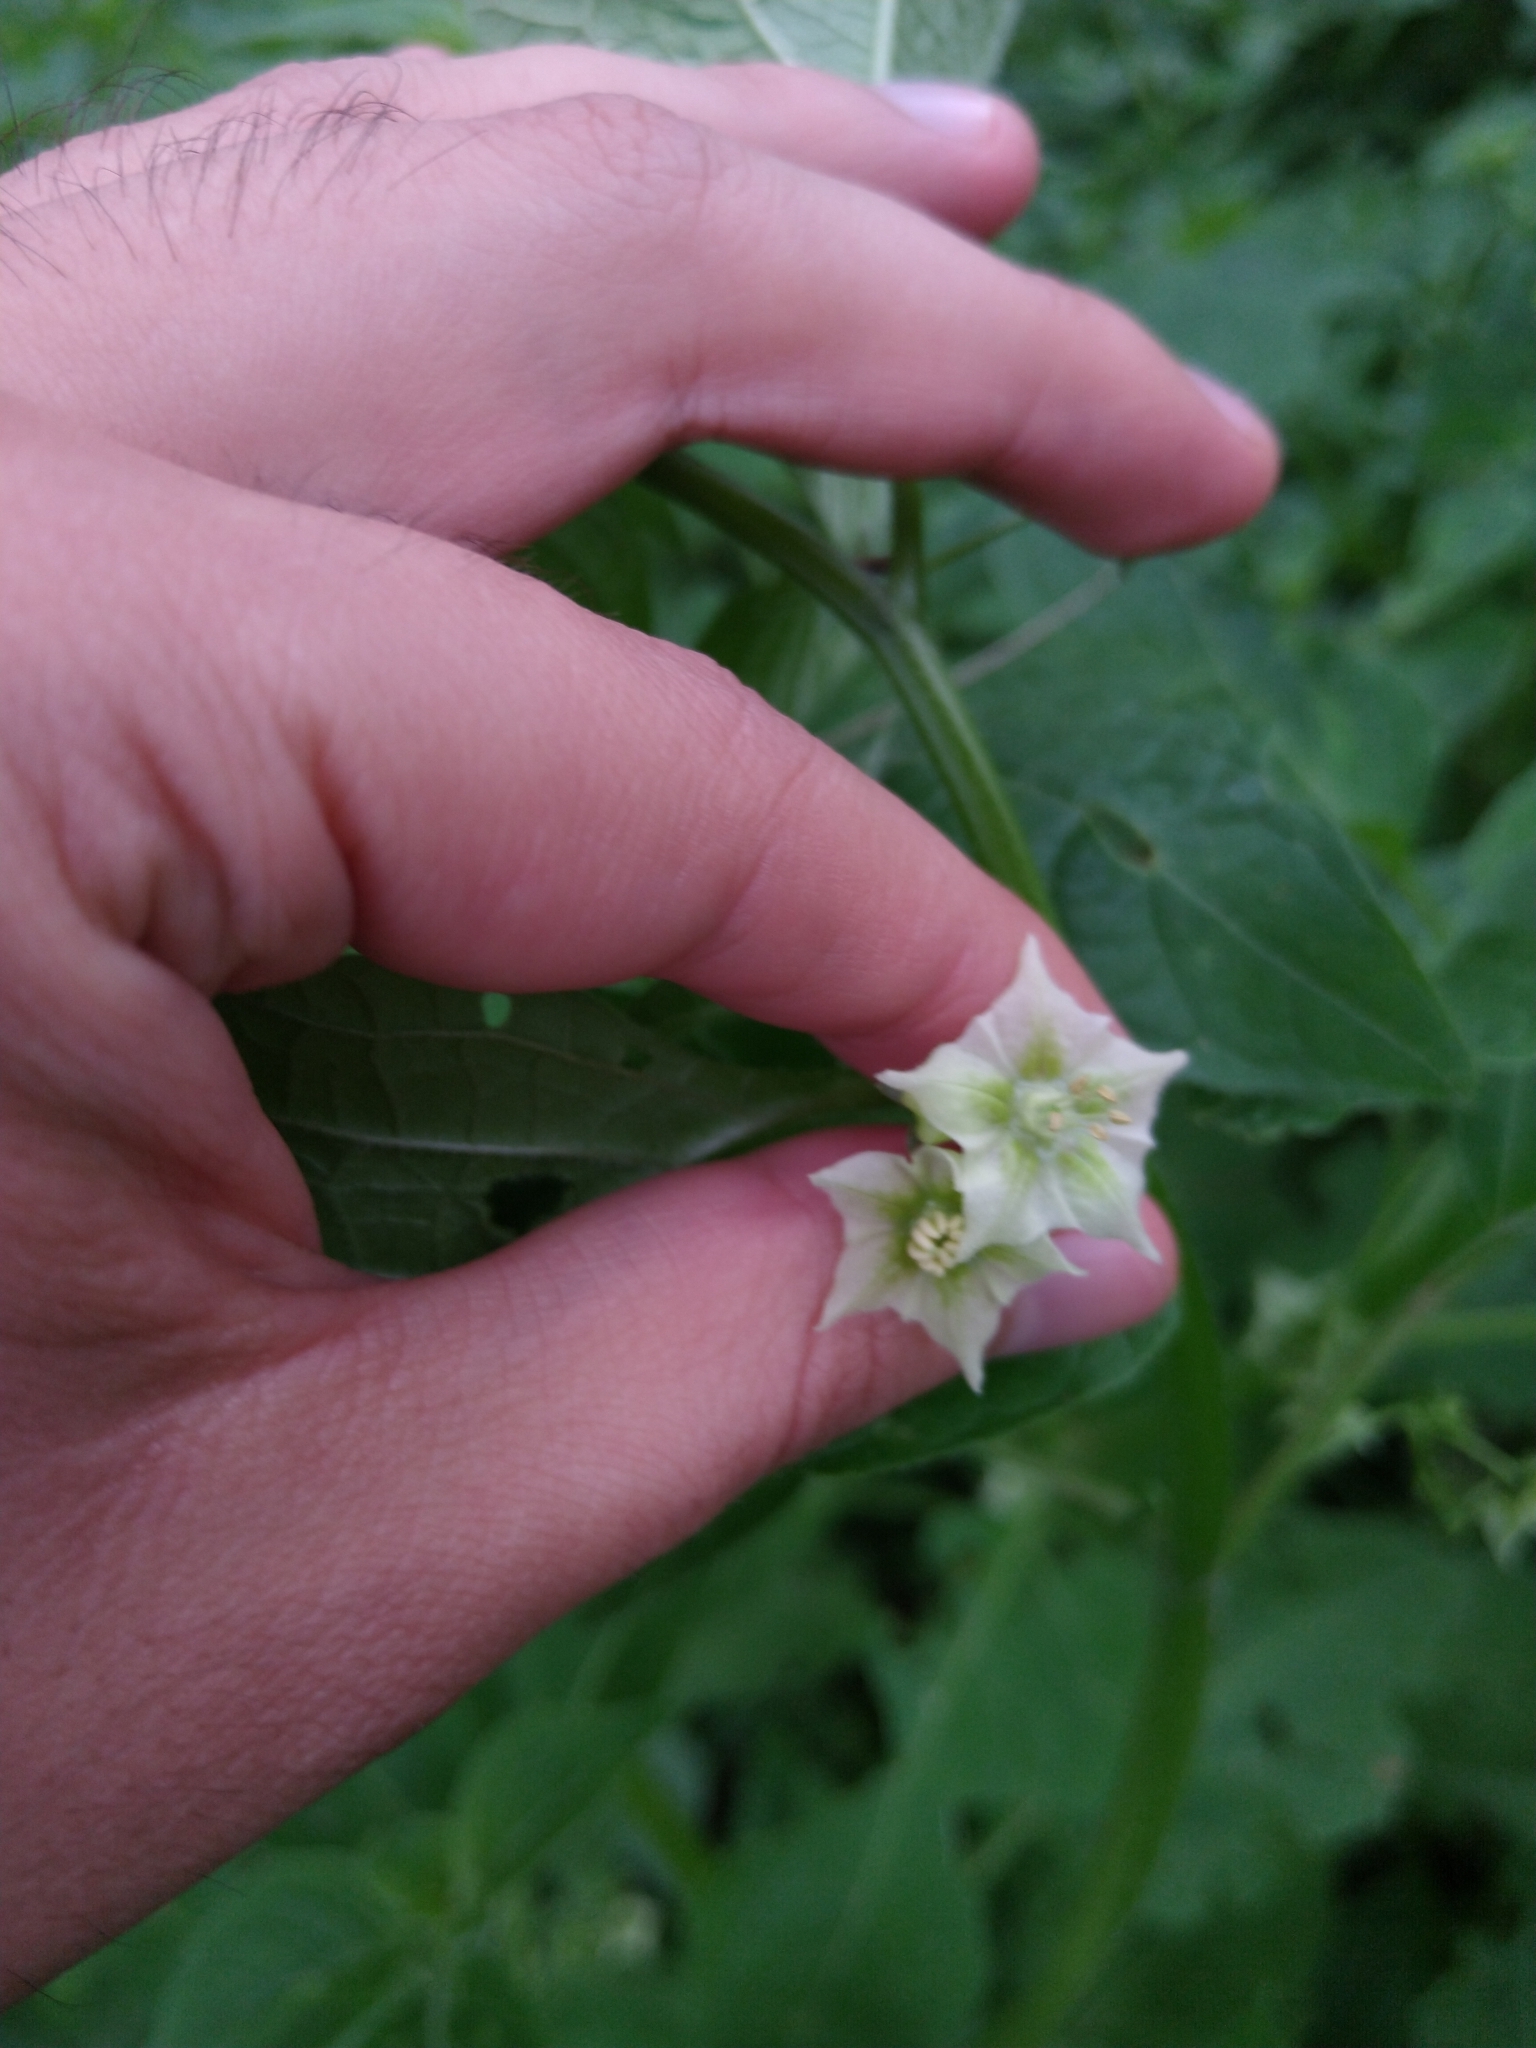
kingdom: Plantae
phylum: Tracheophyta
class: Magnoliopsida
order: Solanales
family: Solanaceae
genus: Jaltomata
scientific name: Jaltomata procumbens
